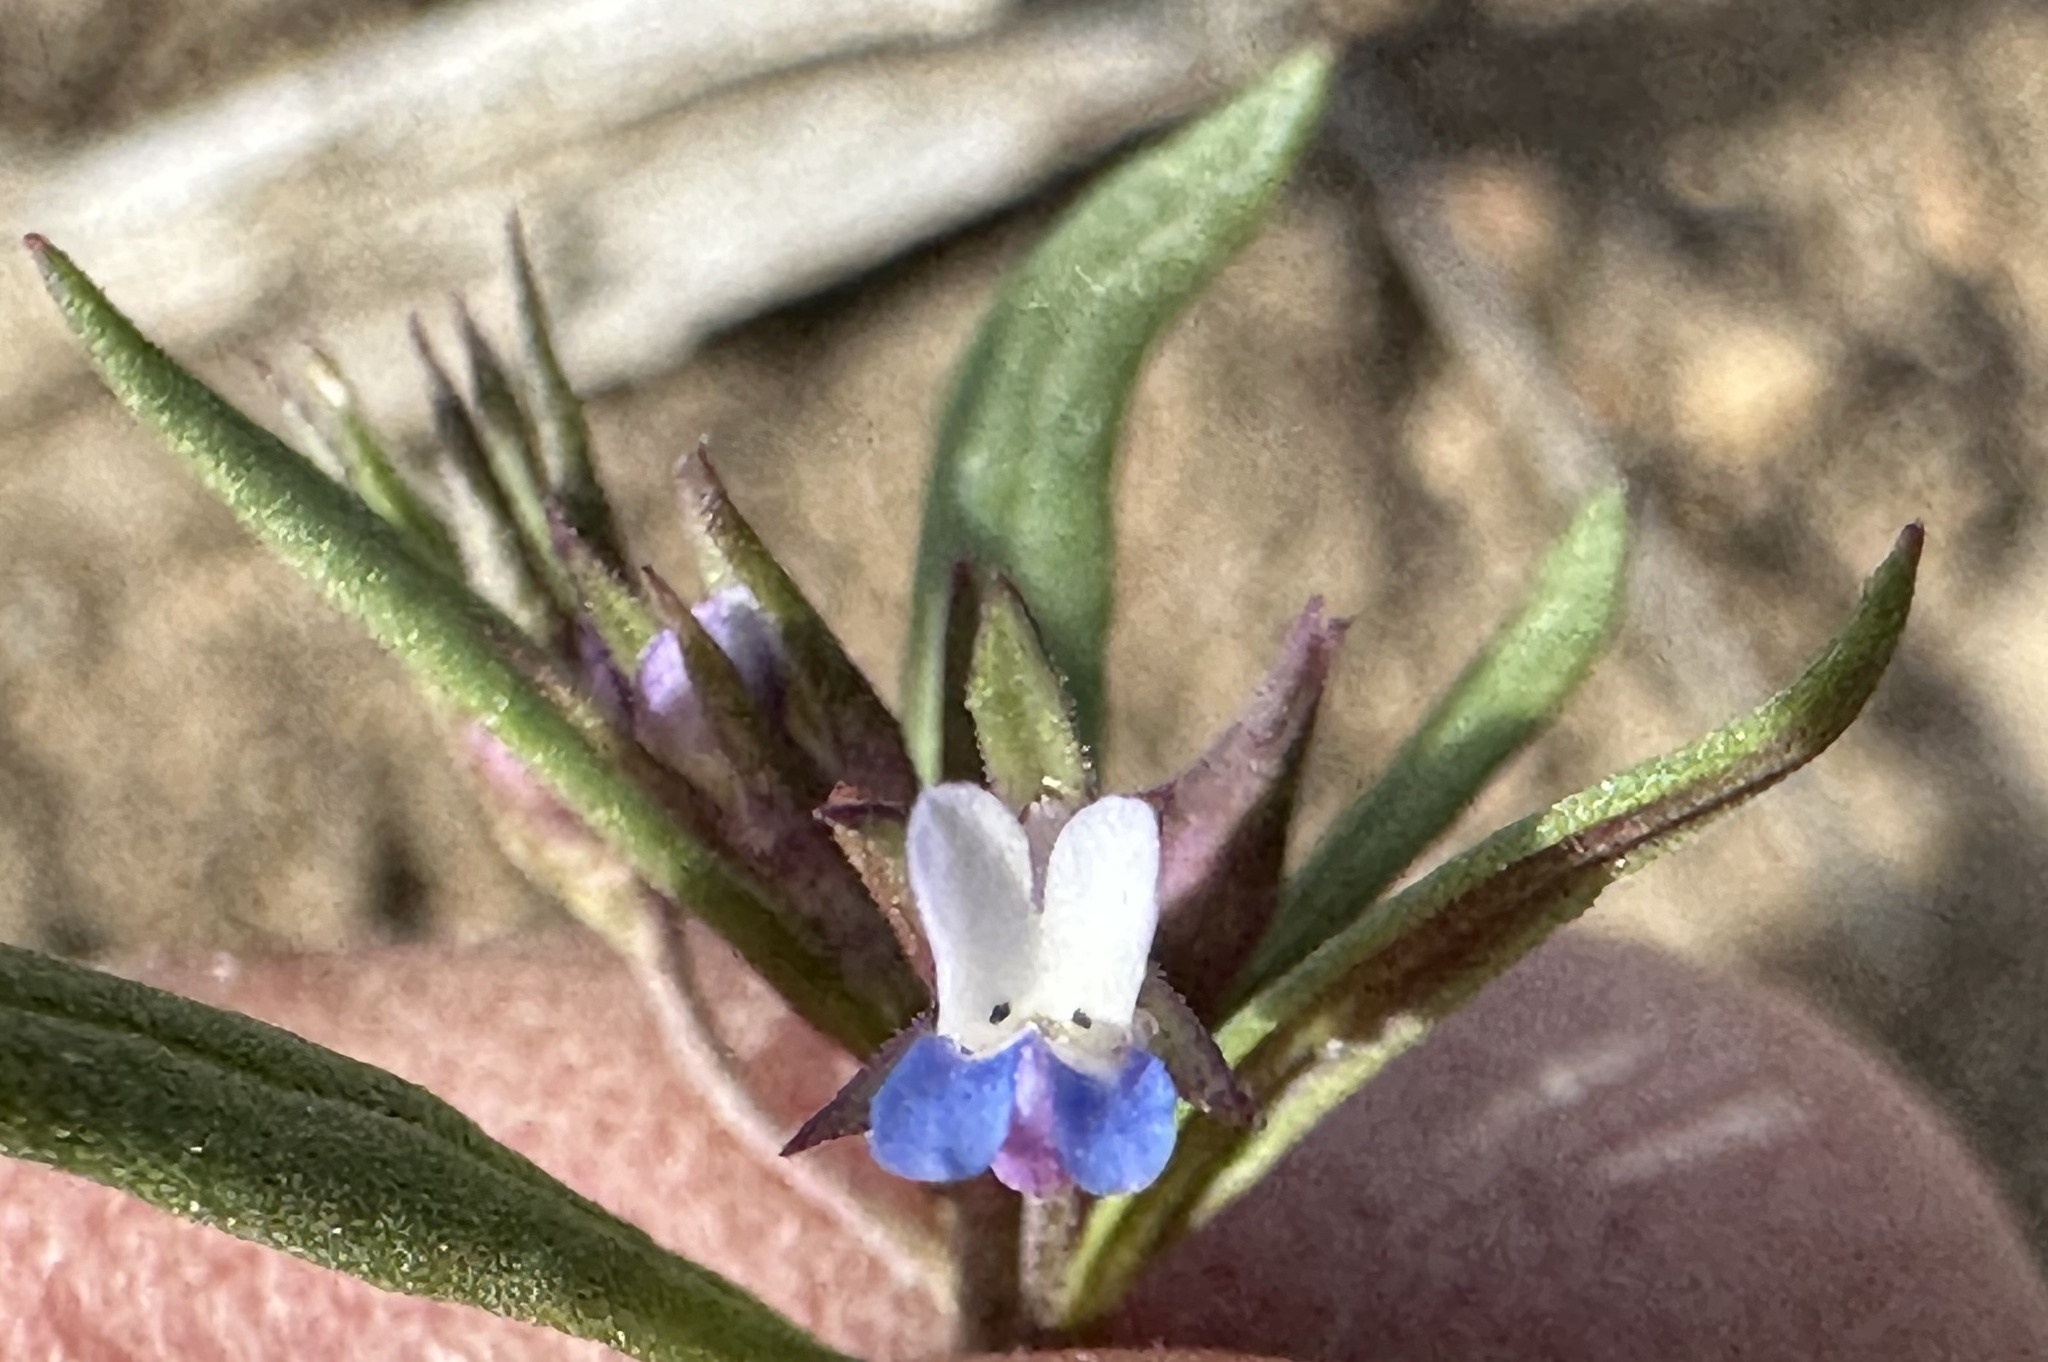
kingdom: Plantae
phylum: Tracheophyta
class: Magnoliopsida
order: Lamiales
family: Plantaginaceae
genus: Collinsia
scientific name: Collinsia parviflora
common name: Blue-lips
